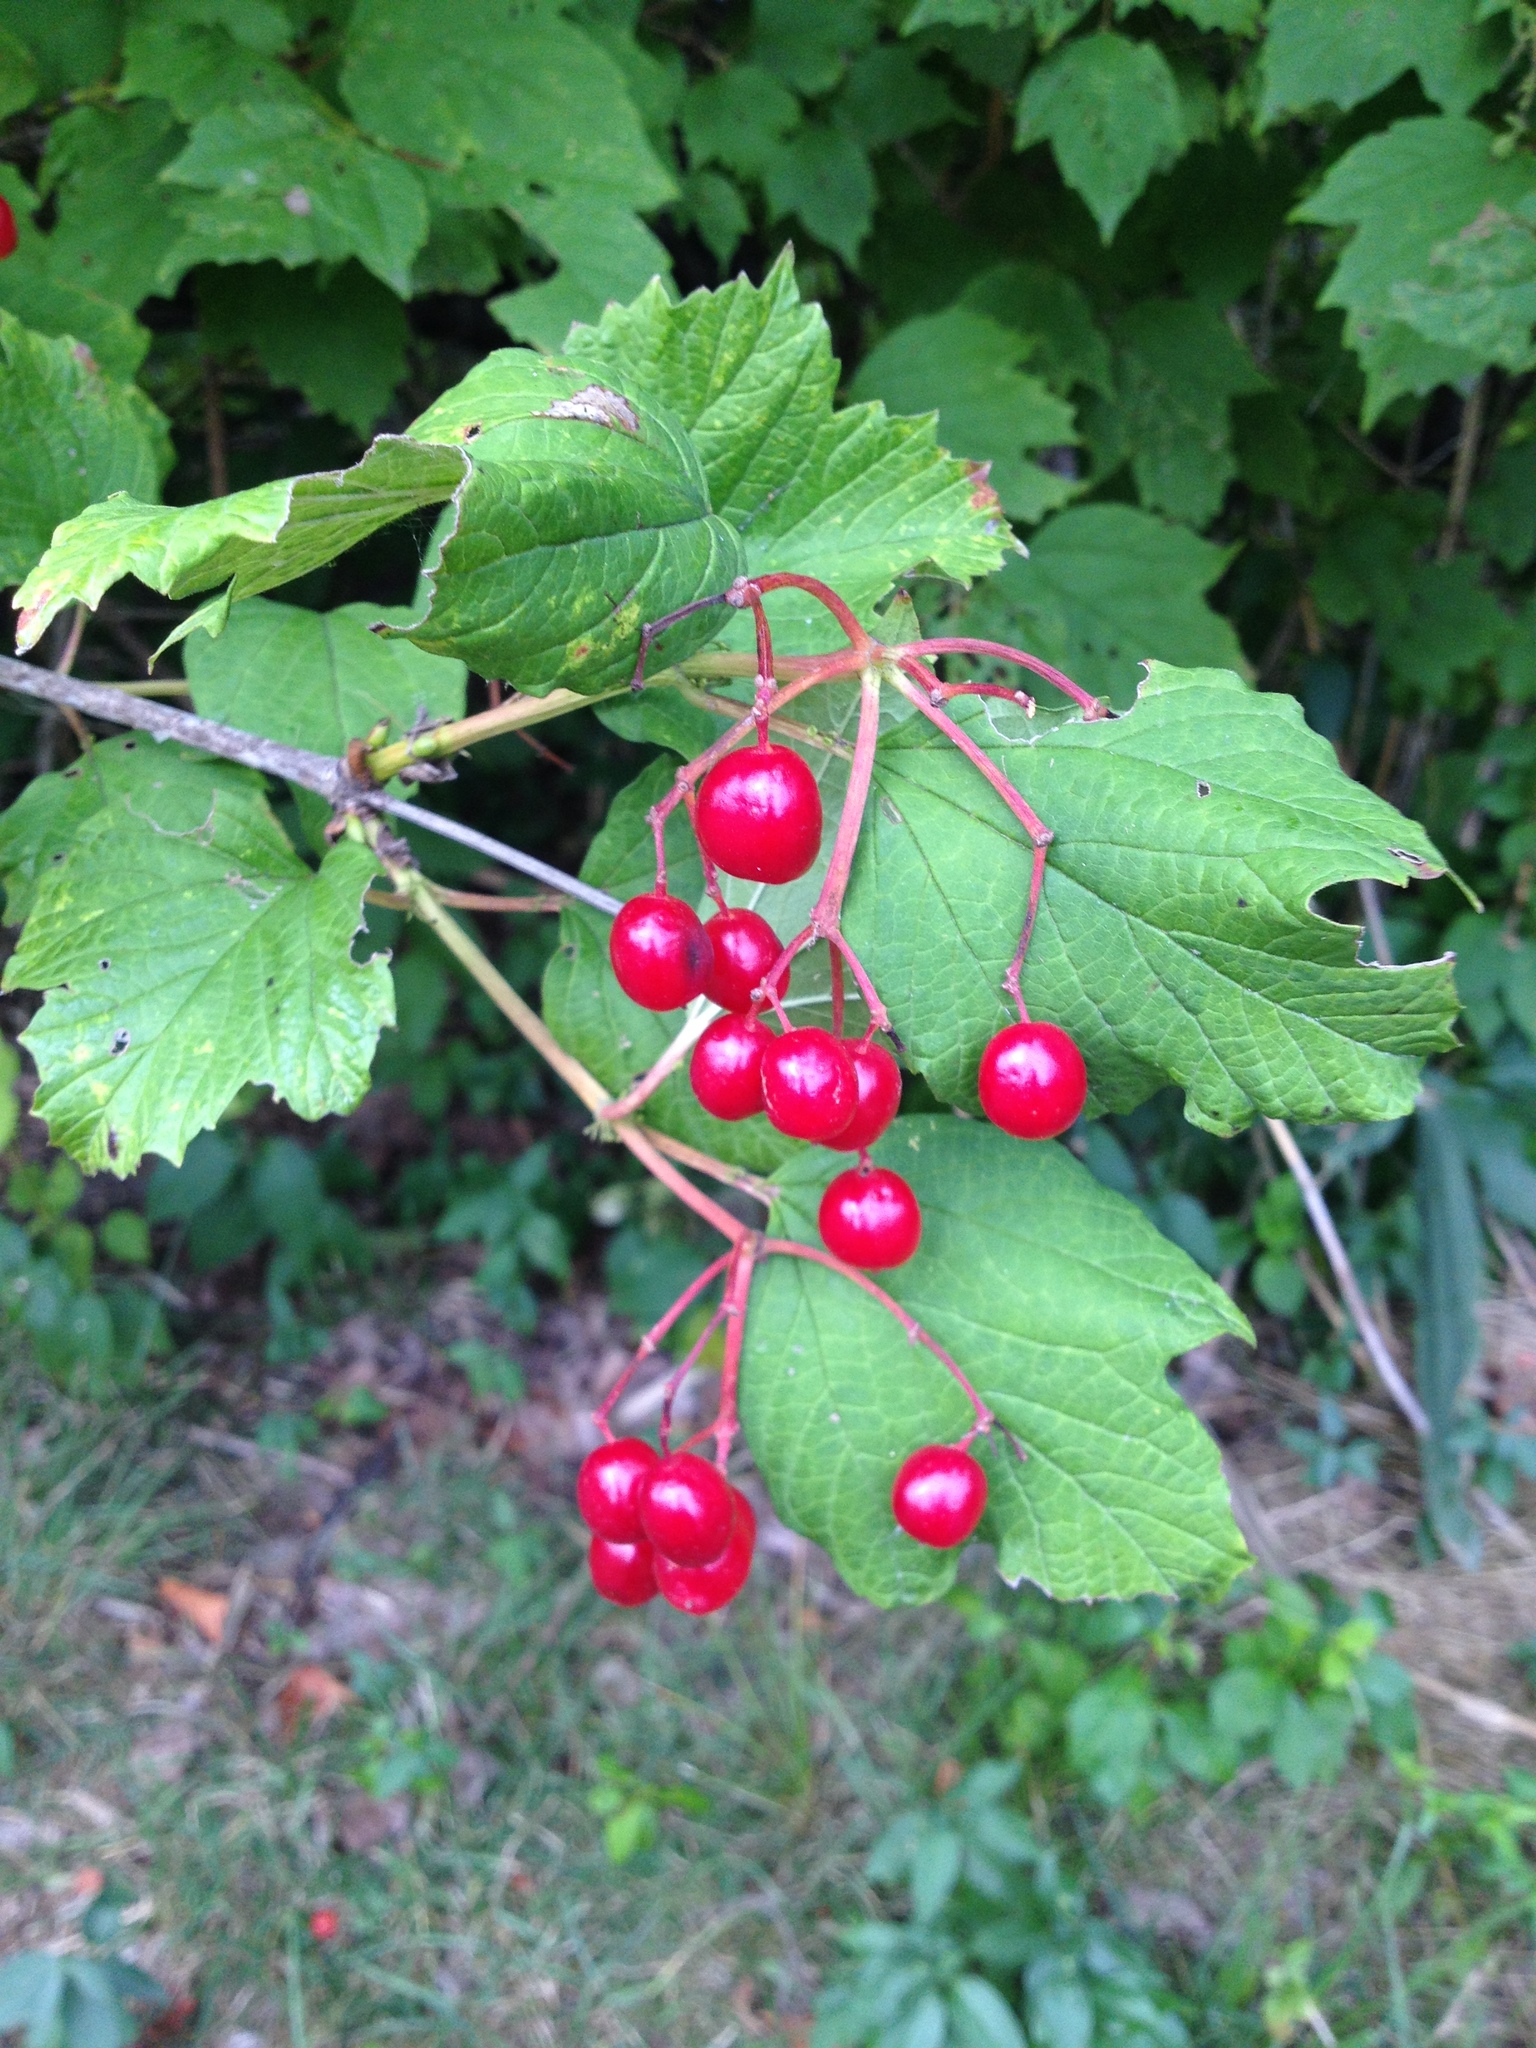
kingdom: Plantae
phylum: Tracheophyta
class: Magnoliopsida
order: Dipsacales
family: Viburnaceae
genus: Viburnum
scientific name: Viburnum opulus
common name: Guelder-rose
